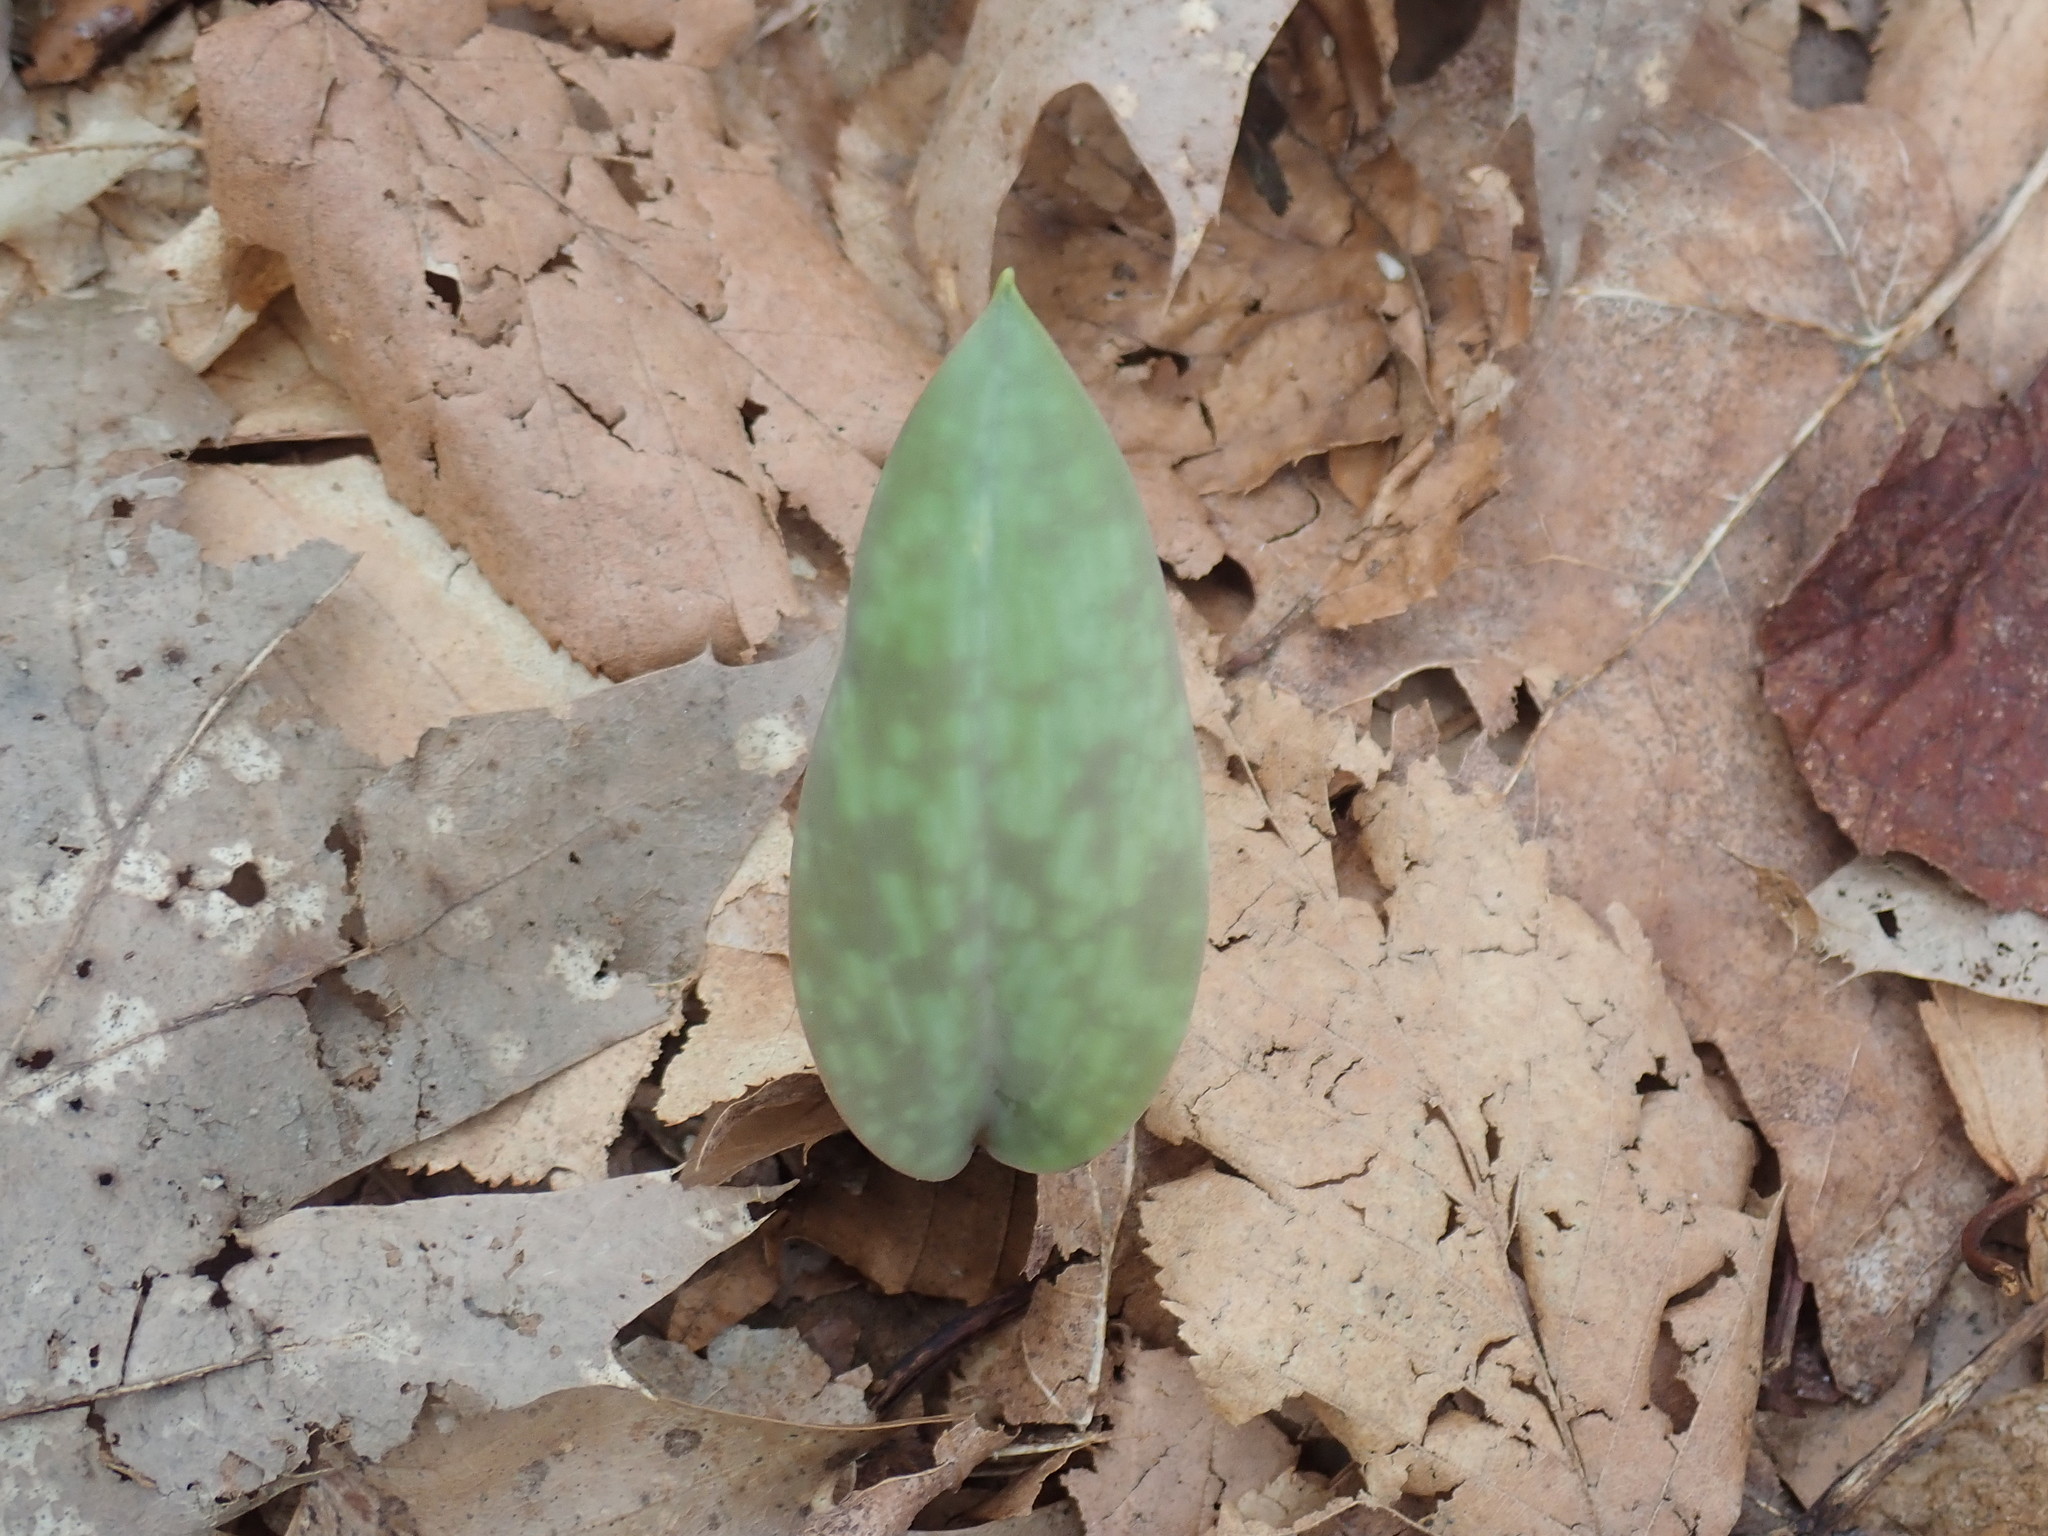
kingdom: Plantae
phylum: Tracheophyta
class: Liliopsida
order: Liliales
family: Liliaceae
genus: Erythronium
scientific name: Erythronium americanum
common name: Yellow adder's-tongue
